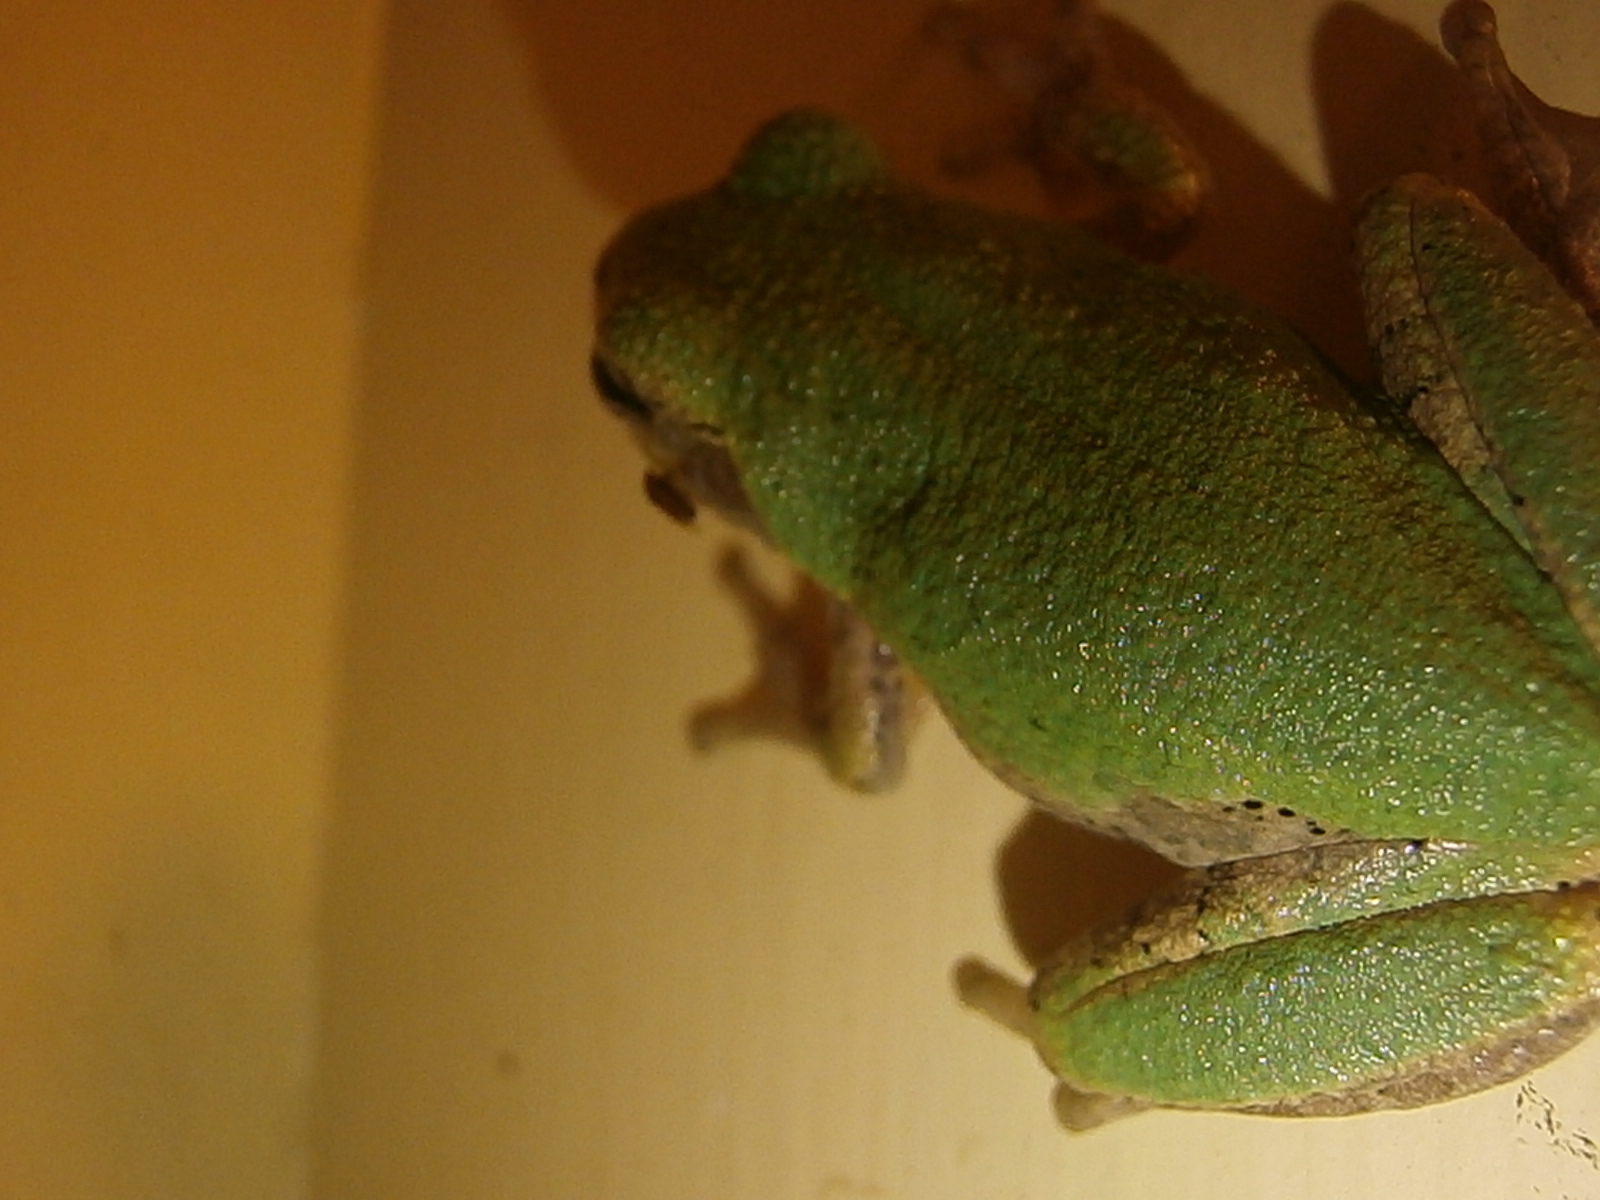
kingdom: Animalia
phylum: Chordata
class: Amphibia
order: Anura
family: Hylidae
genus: Hyla
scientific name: Hyla
